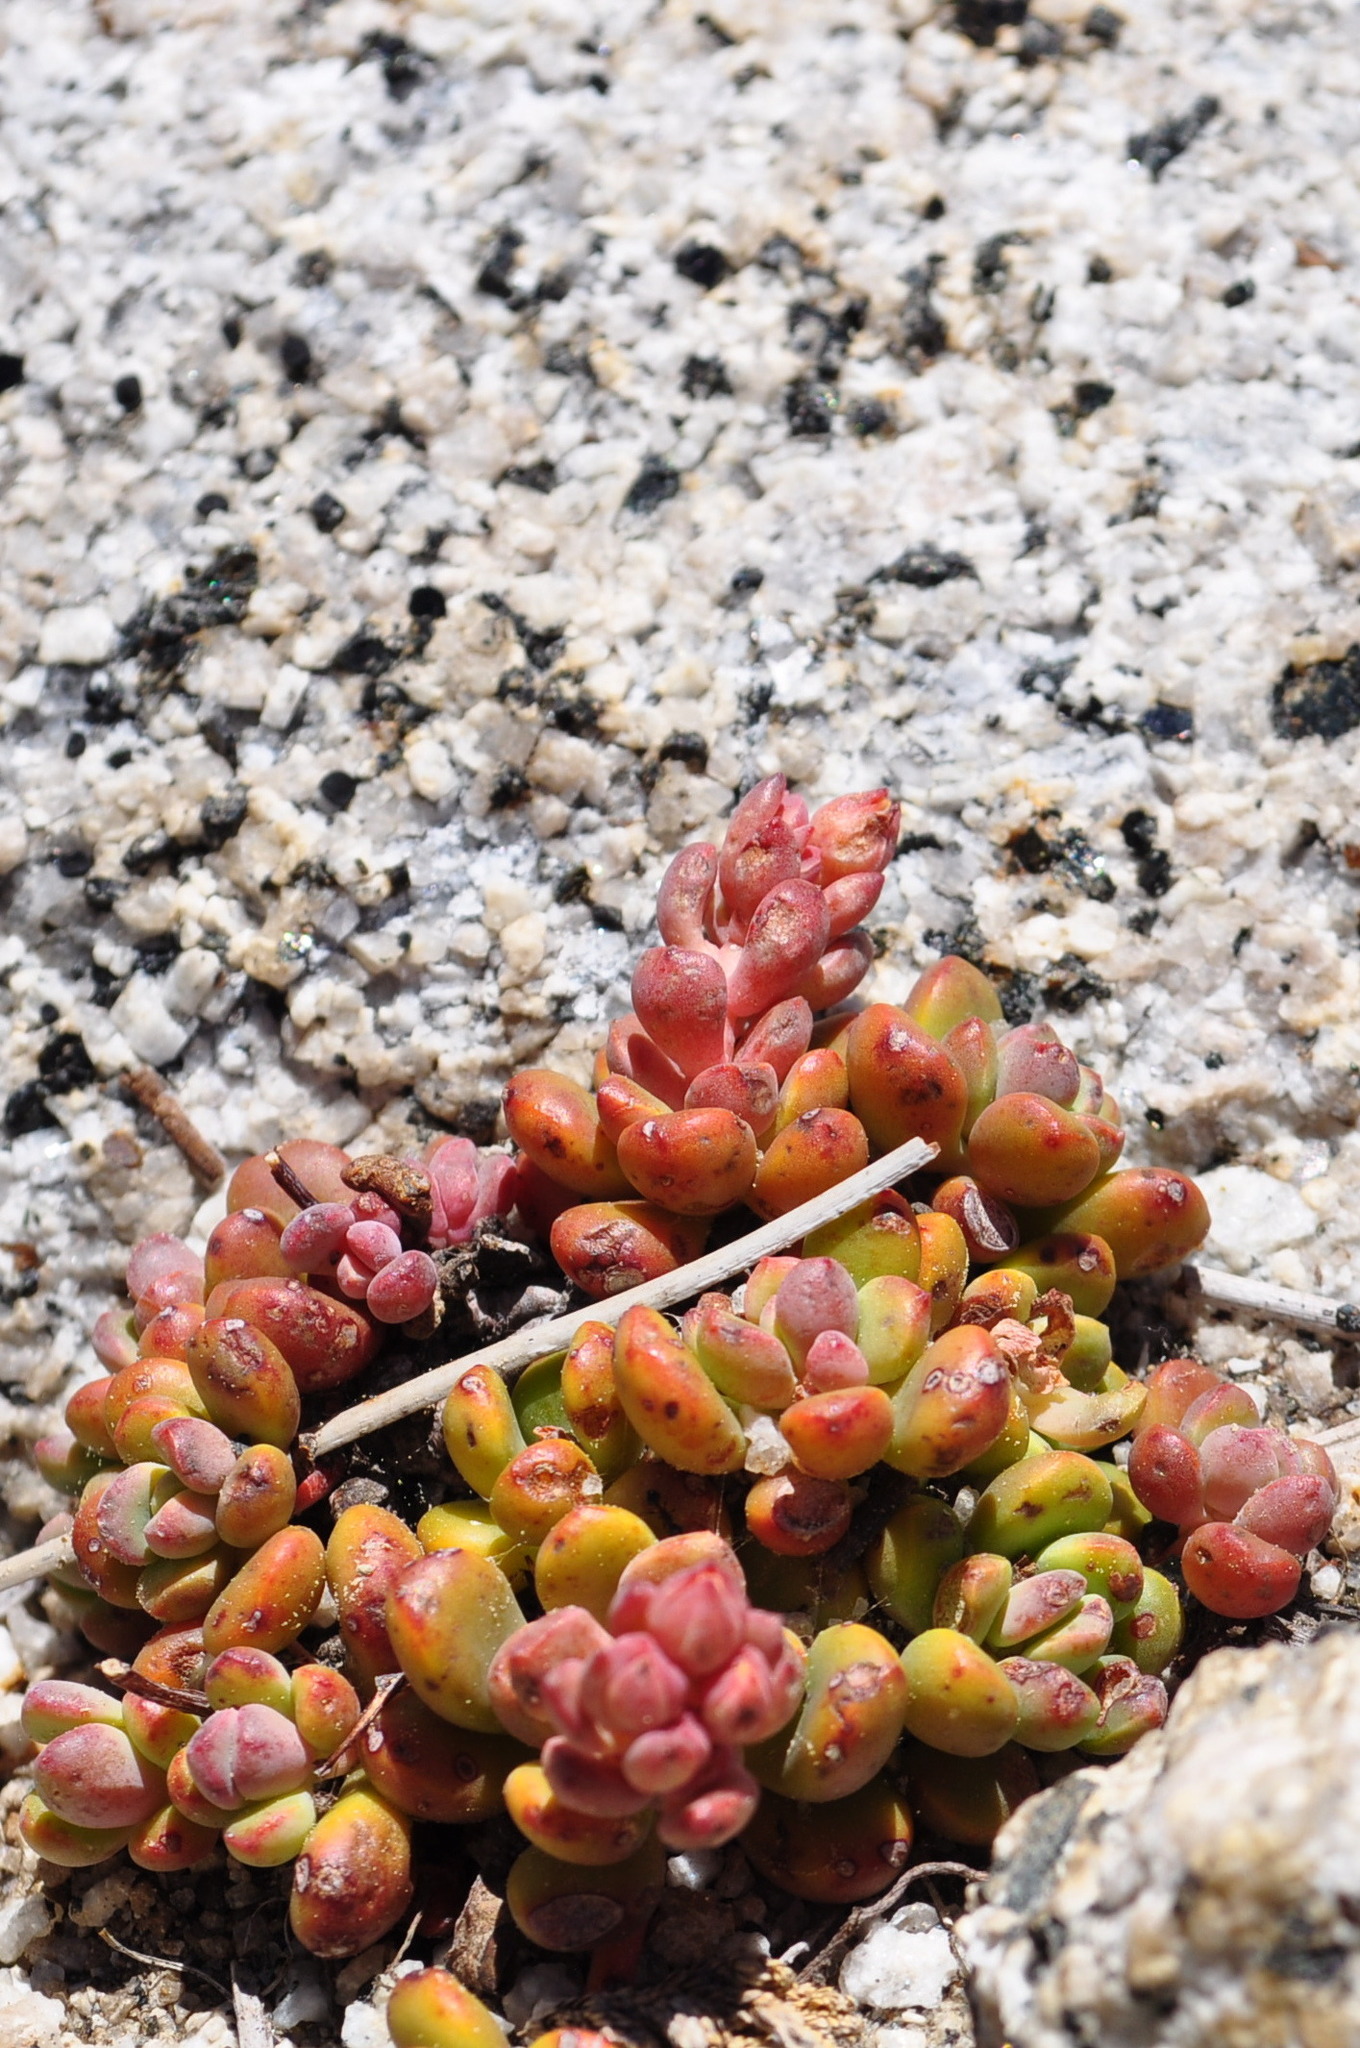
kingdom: Plantae
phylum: Tracheophyta
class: Magnoliopsida
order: Saxifragales
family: Crassulaceae
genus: Sedum
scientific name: Sedum obtusatum
